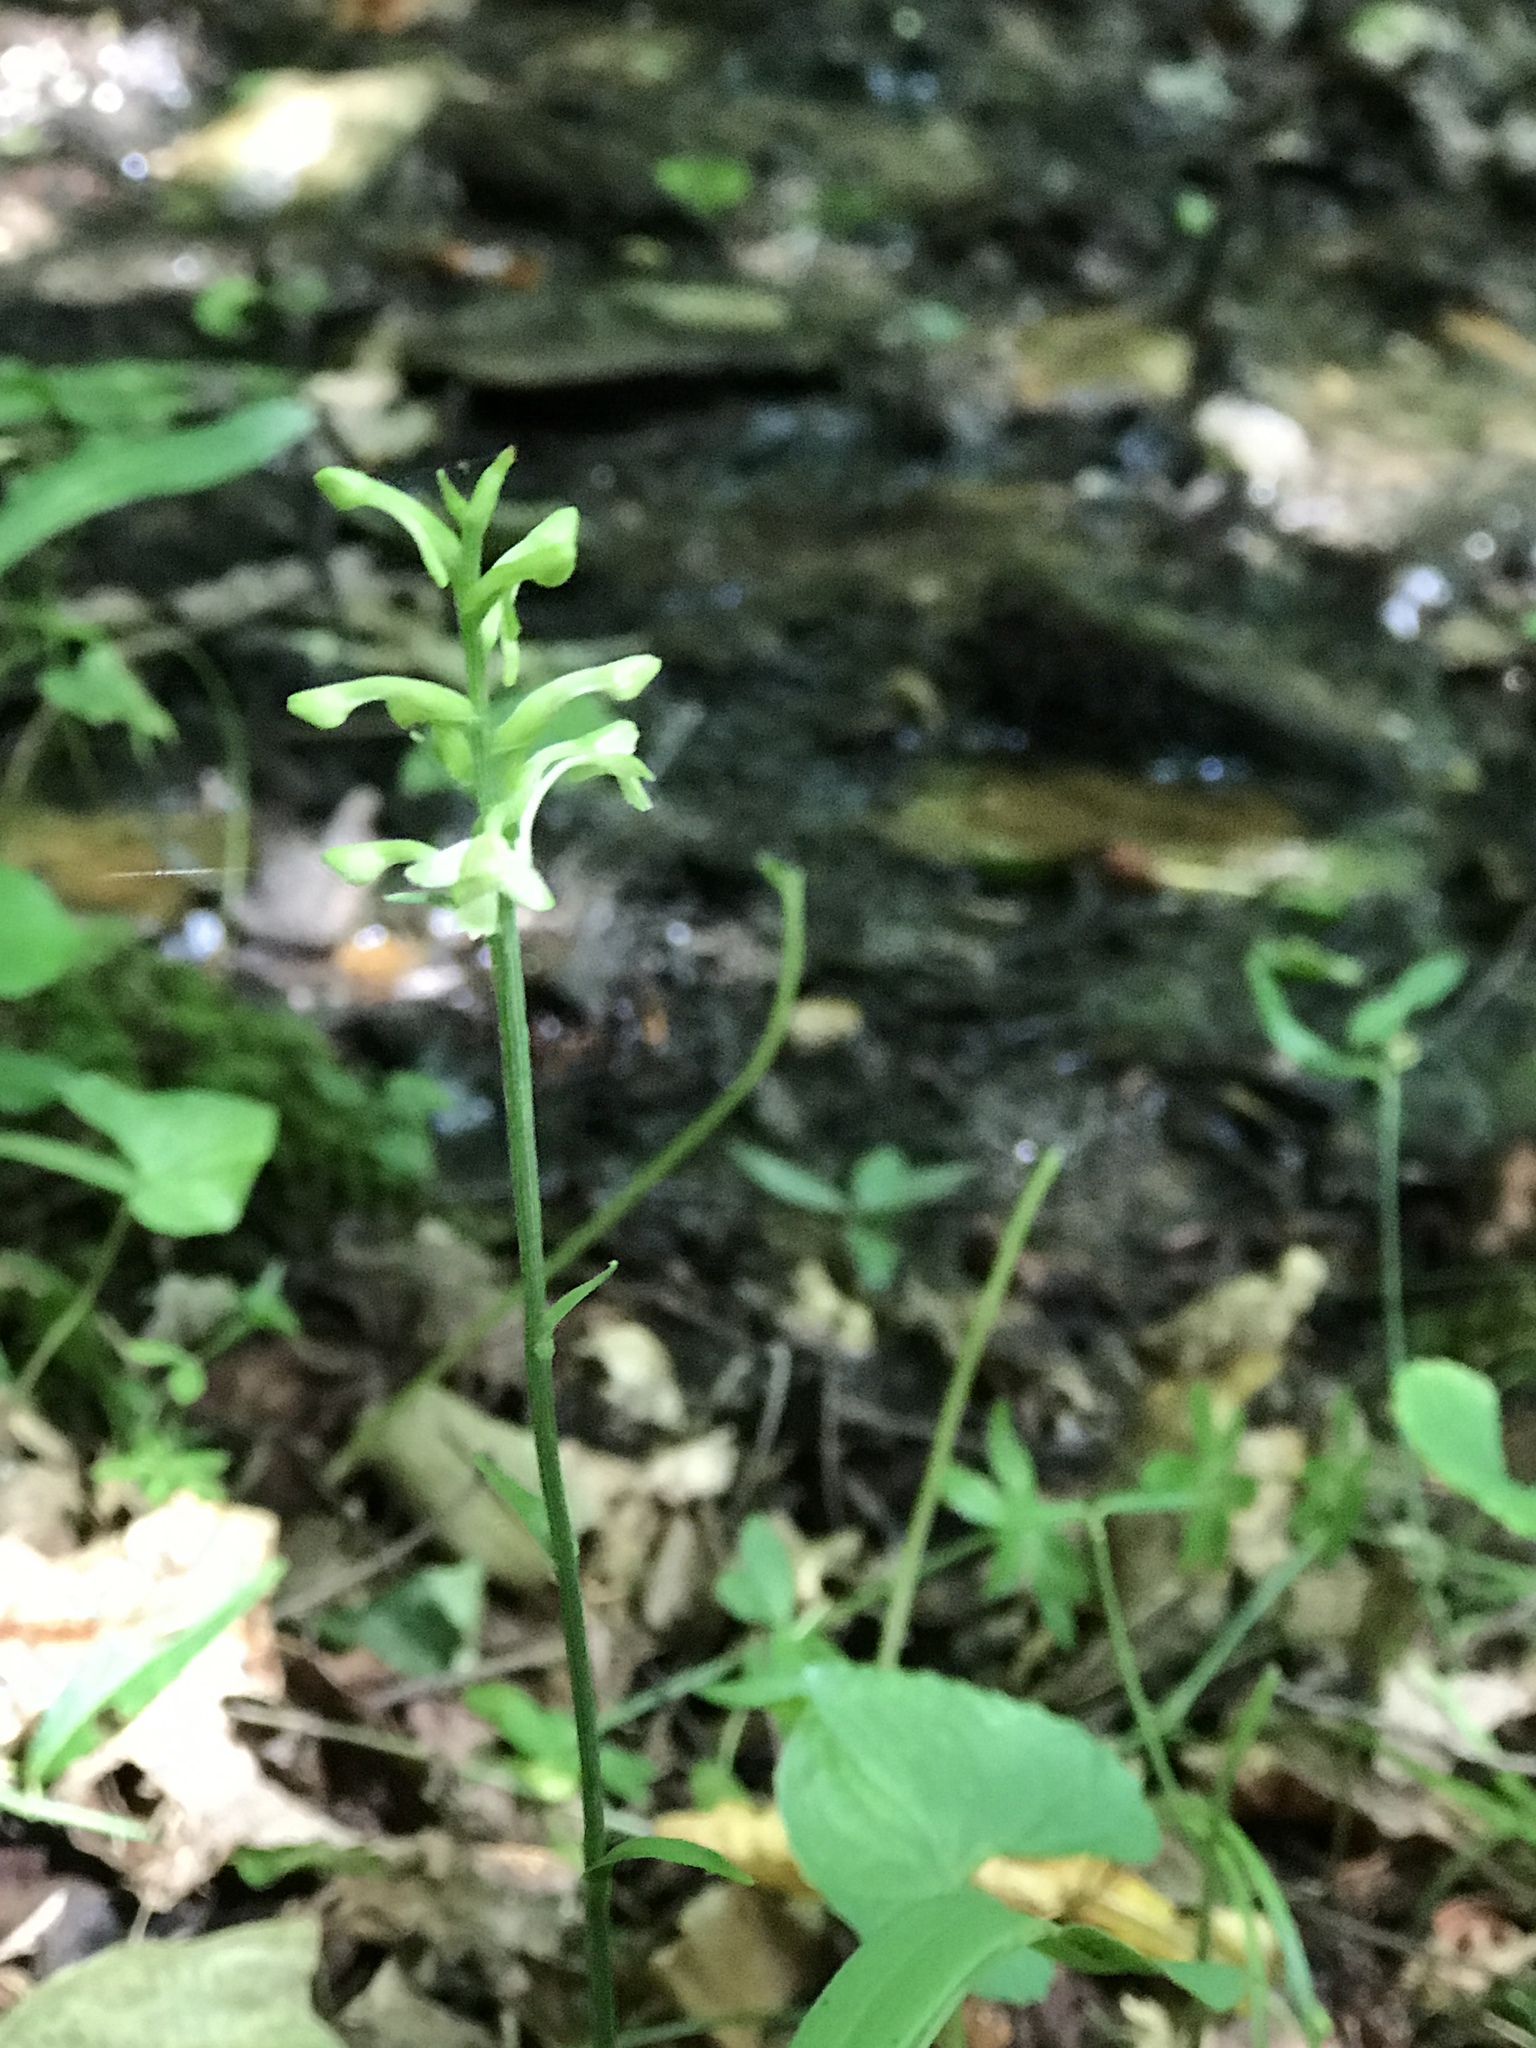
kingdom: Plantae
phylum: Tracheophyta
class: Liliopsida
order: Asparagales
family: Orchidaceae
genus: Platanthera
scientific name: Platanthera clavellata
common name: Club-spur orchid
